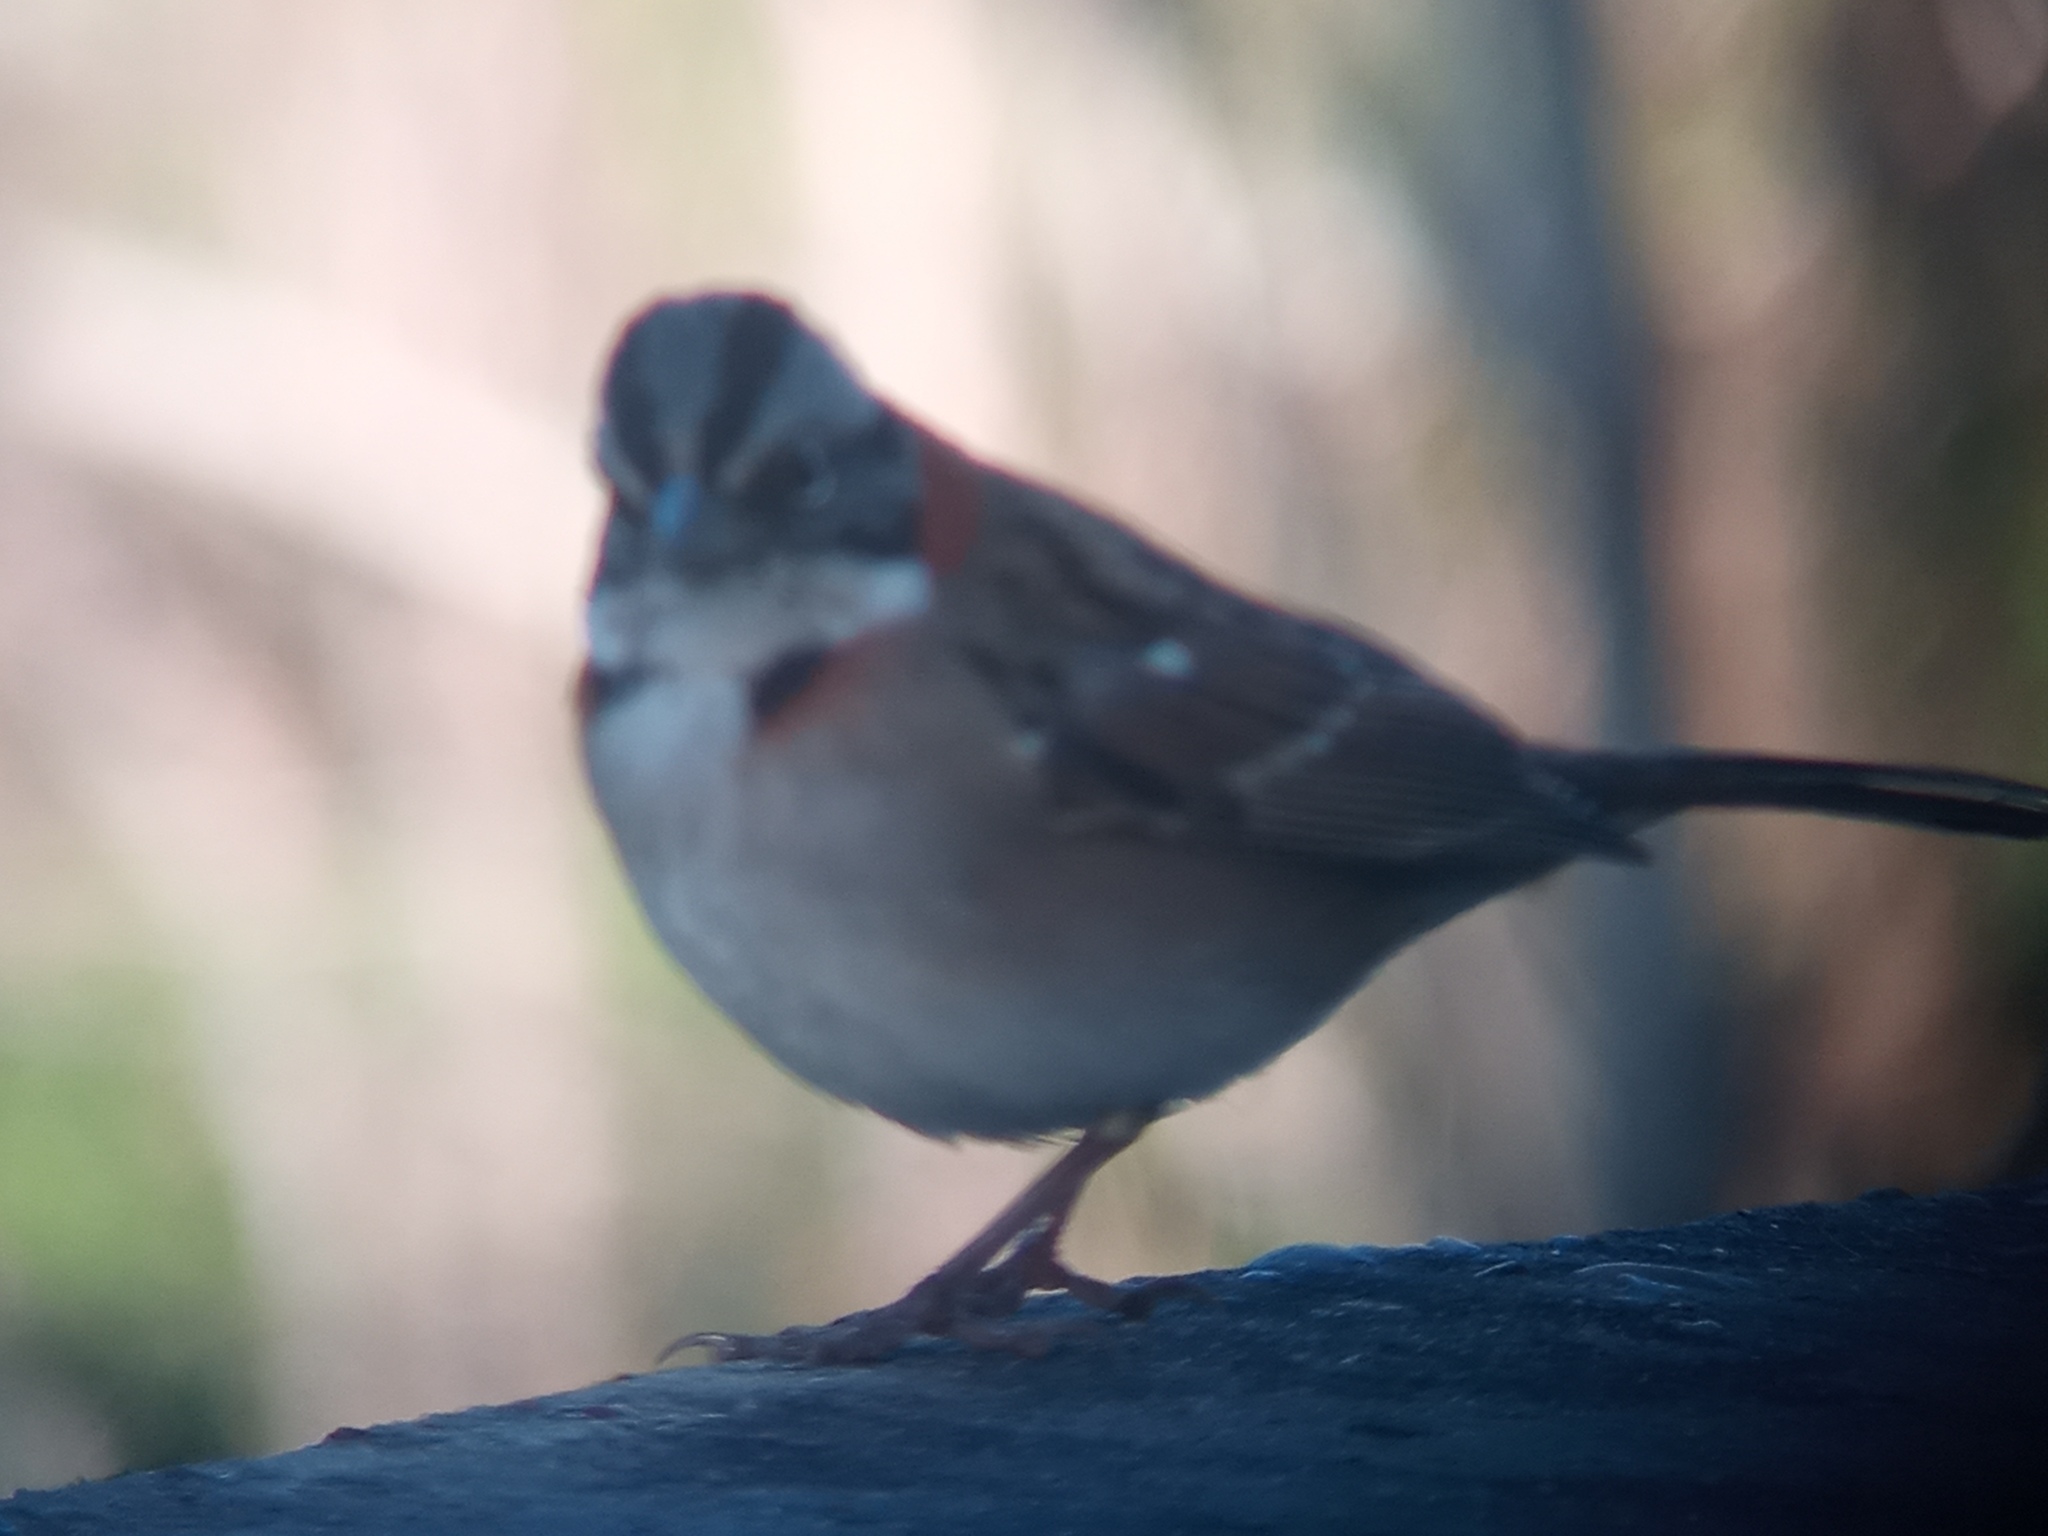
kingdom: Animalia
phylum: Chordata
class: Aves
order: Passeriformes
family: Passerellidae
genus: Zonotrichia
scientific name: Zonotrichia capensis
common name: Rufous-collared sparrow
